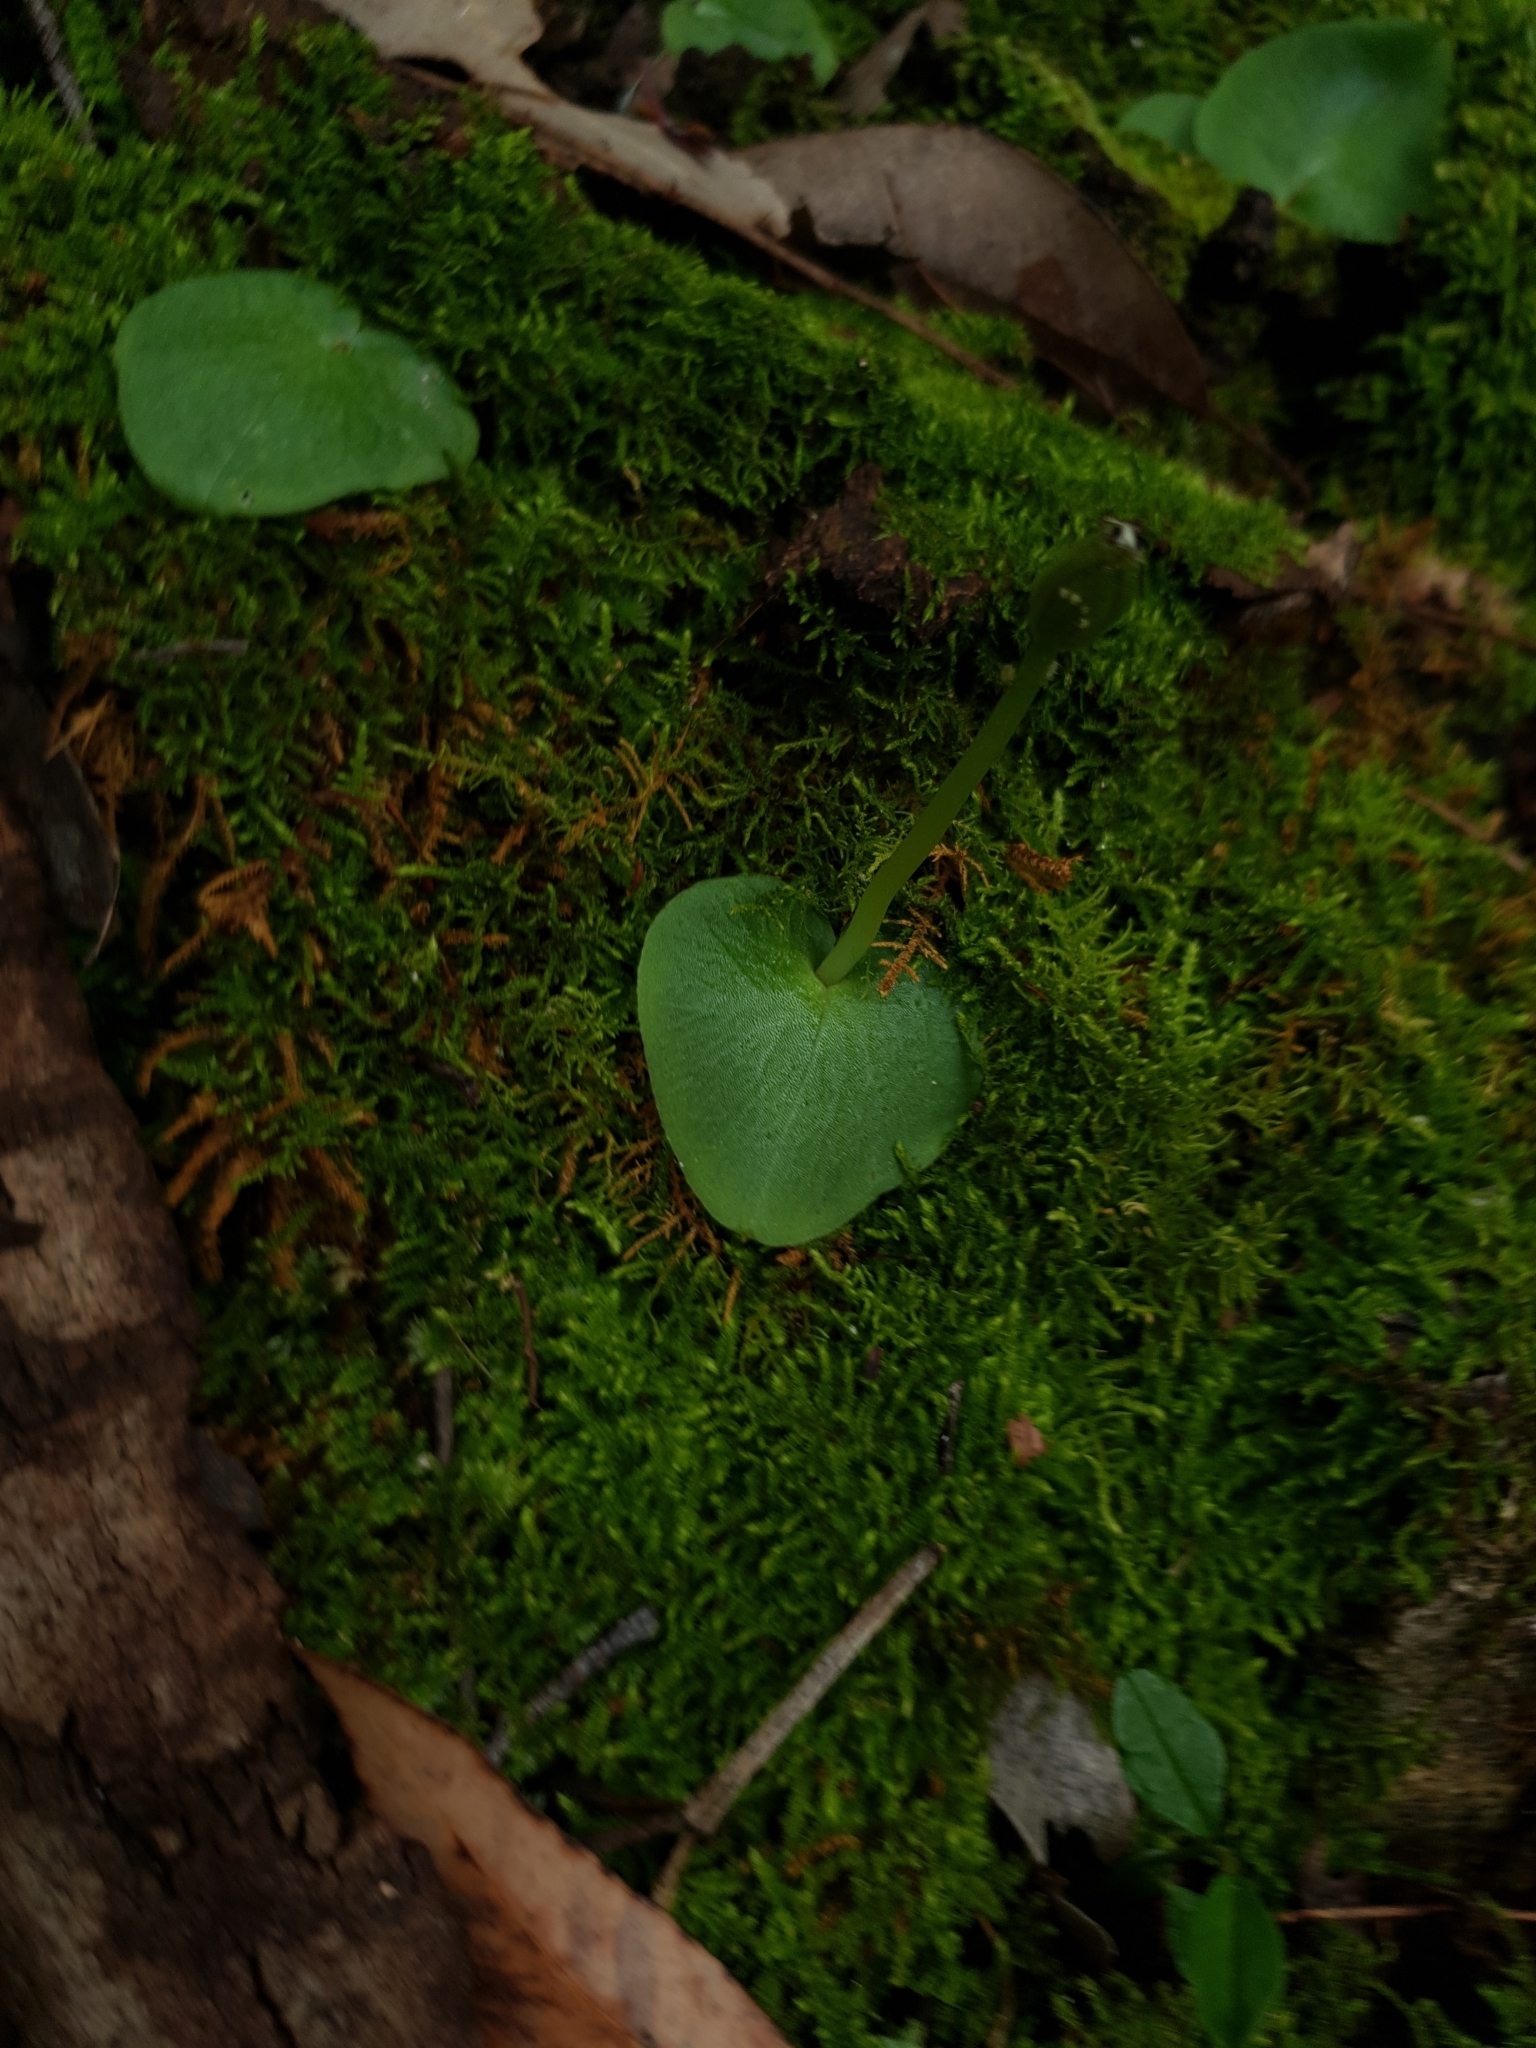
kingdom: Plantae
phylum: Tracheophyta
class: Liliopsida
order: Asparagales
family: Orchidaceae
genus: Corybas
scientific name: Corybas recurvus
